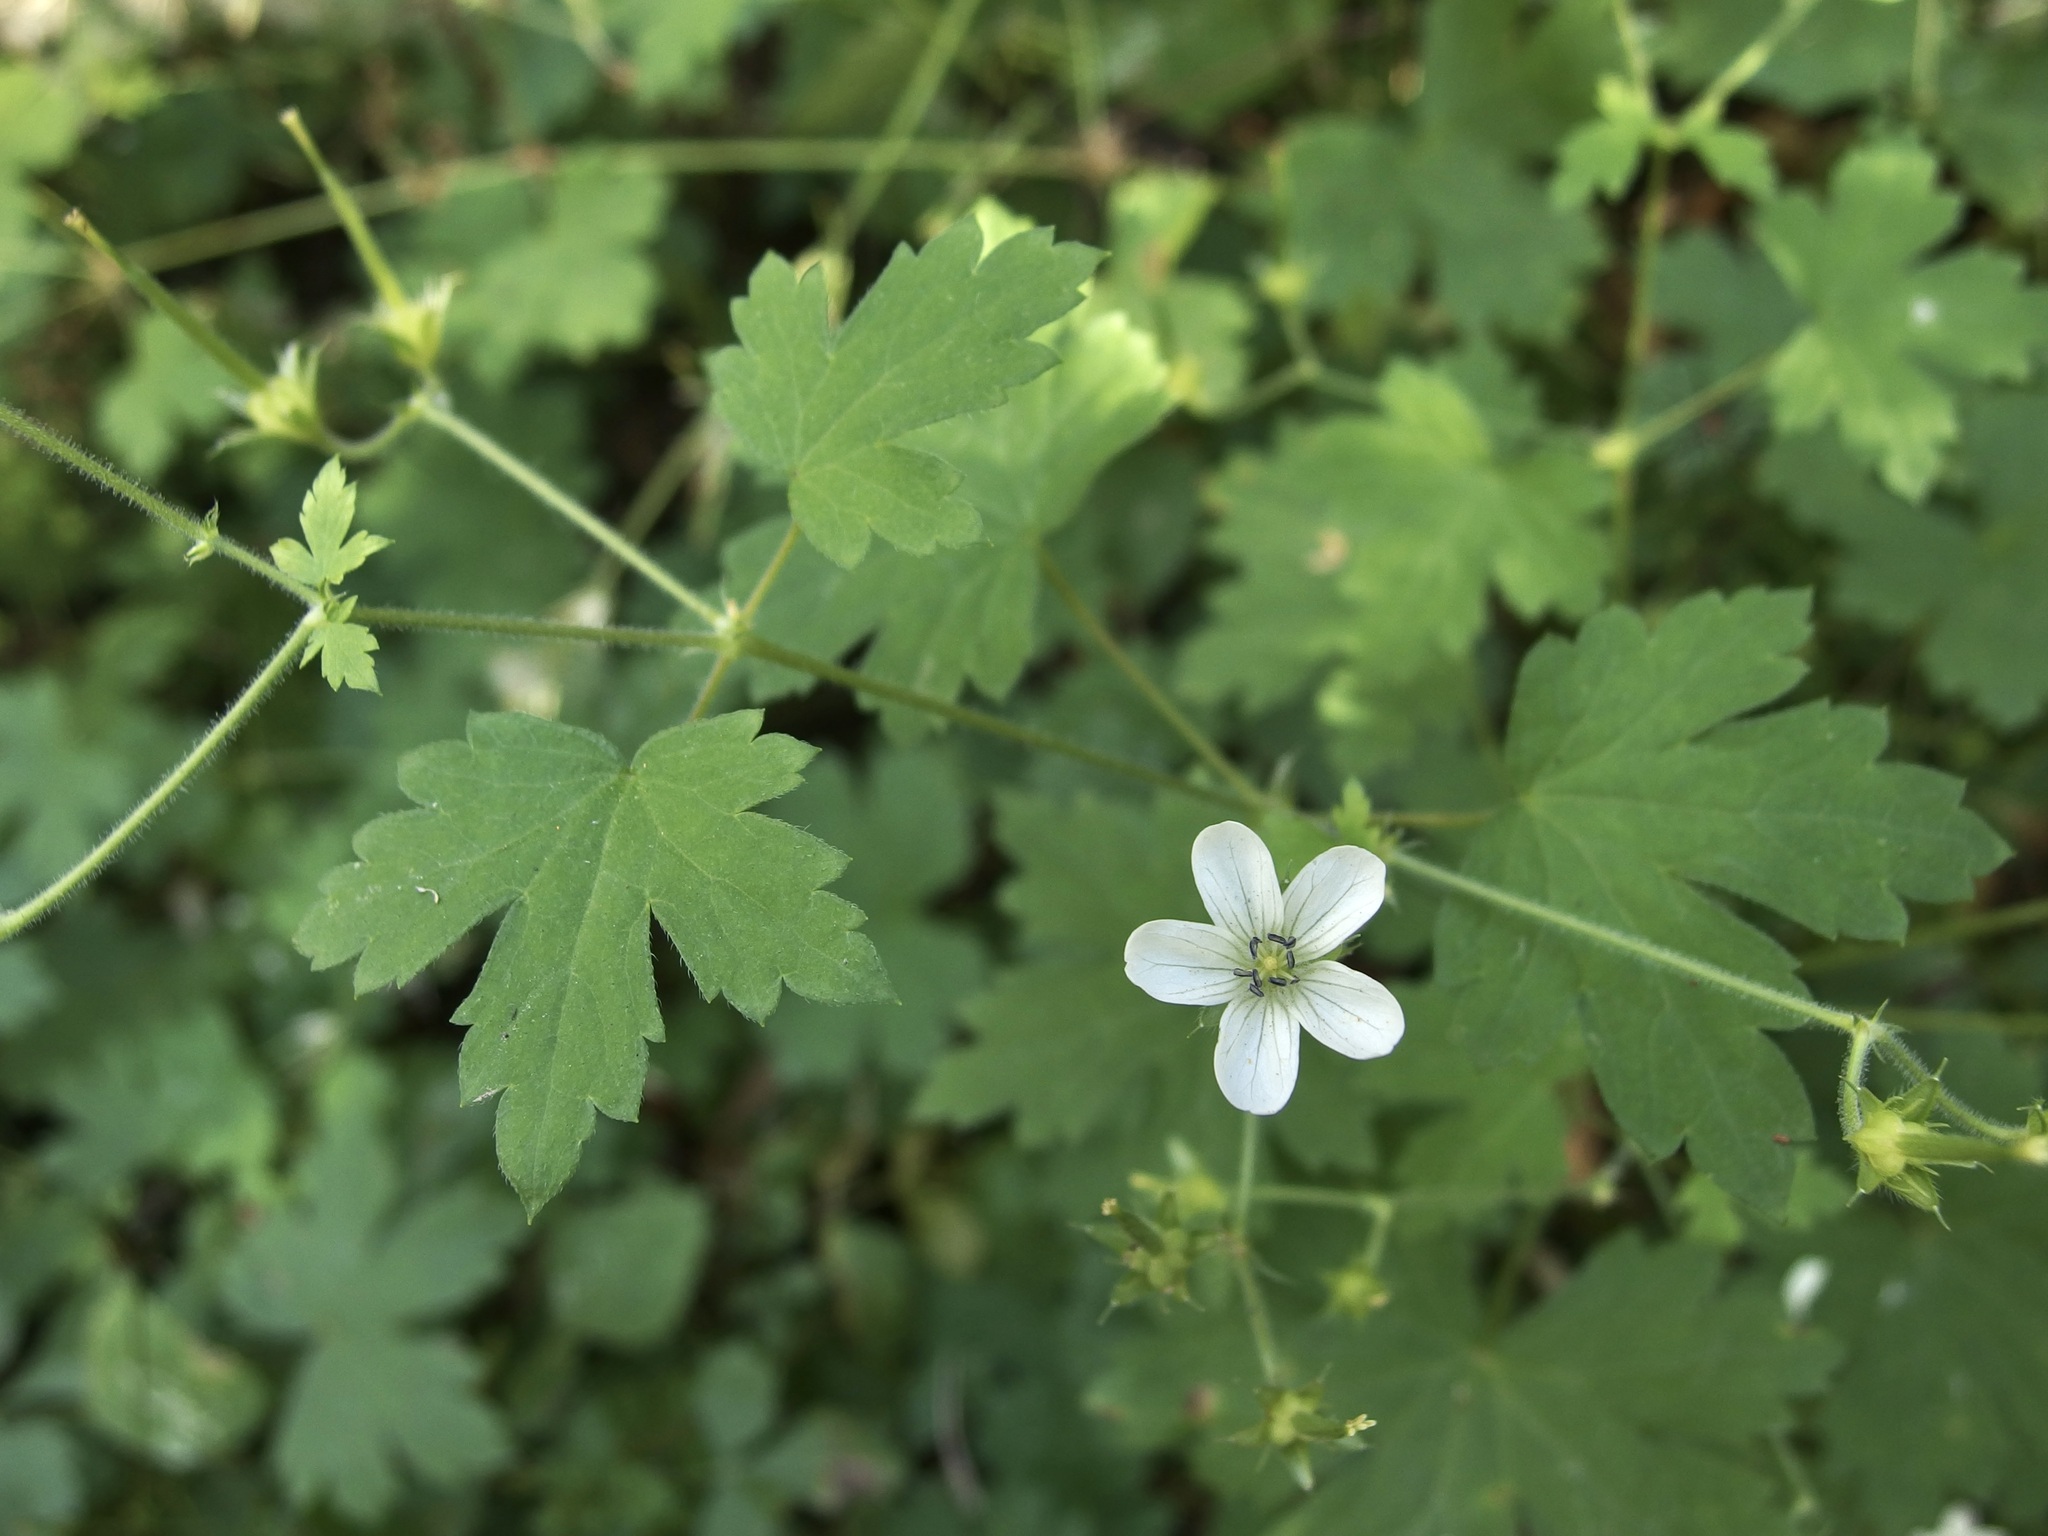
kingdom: Plantae
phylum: Tracheophyta
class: Magnoliopsida
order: Geraniales
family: Geraniaceae
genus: Geranium
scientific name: Geranium wislizeni
